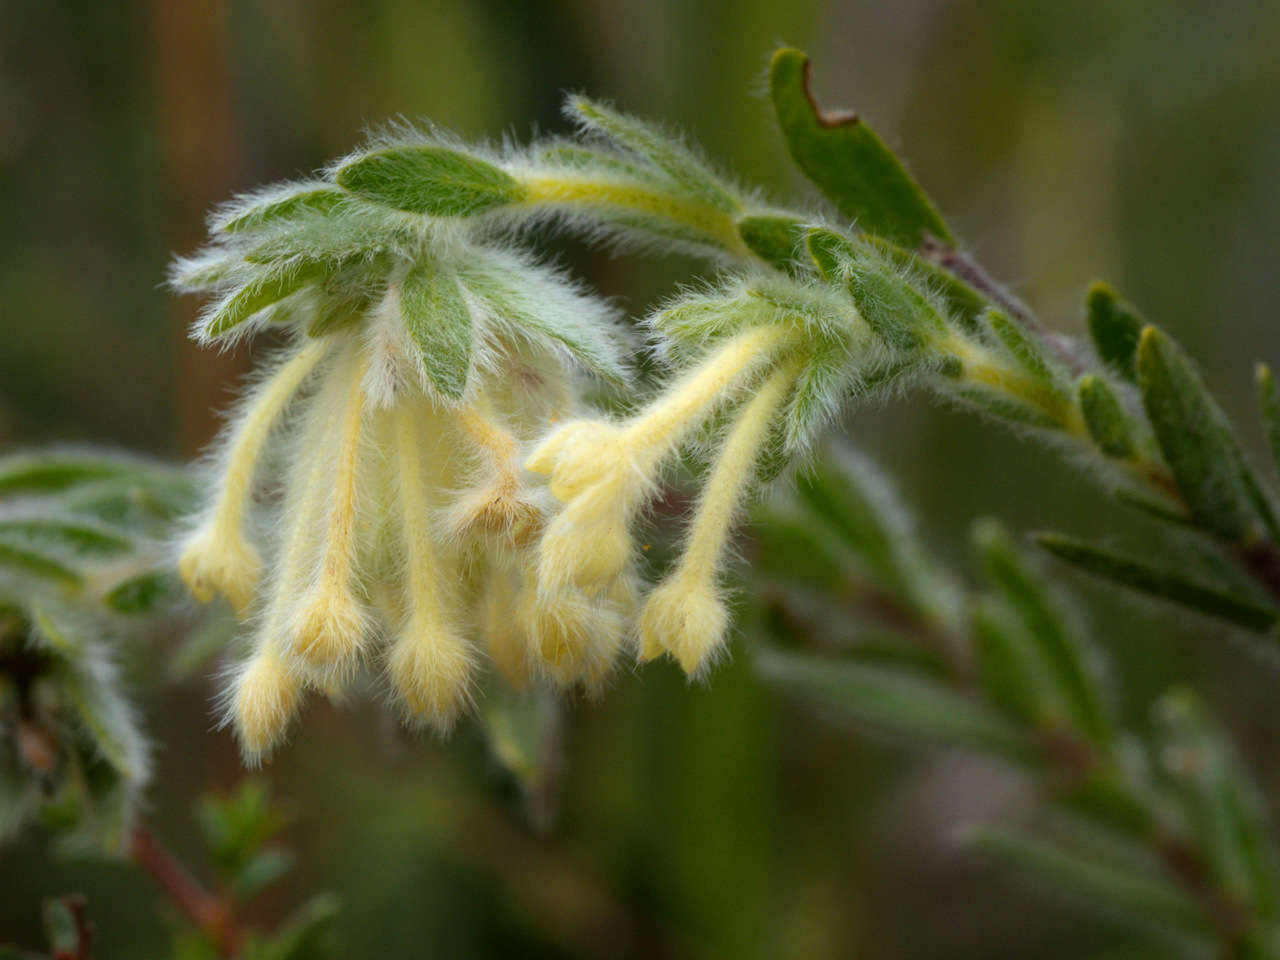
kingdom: Plantae
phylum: Tracheophyta
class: Magnoliopsida
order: Malvales
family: Thymelaeaceae
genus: Pimelea
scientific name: Pimelea octophylla
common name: Woolly riceflower
